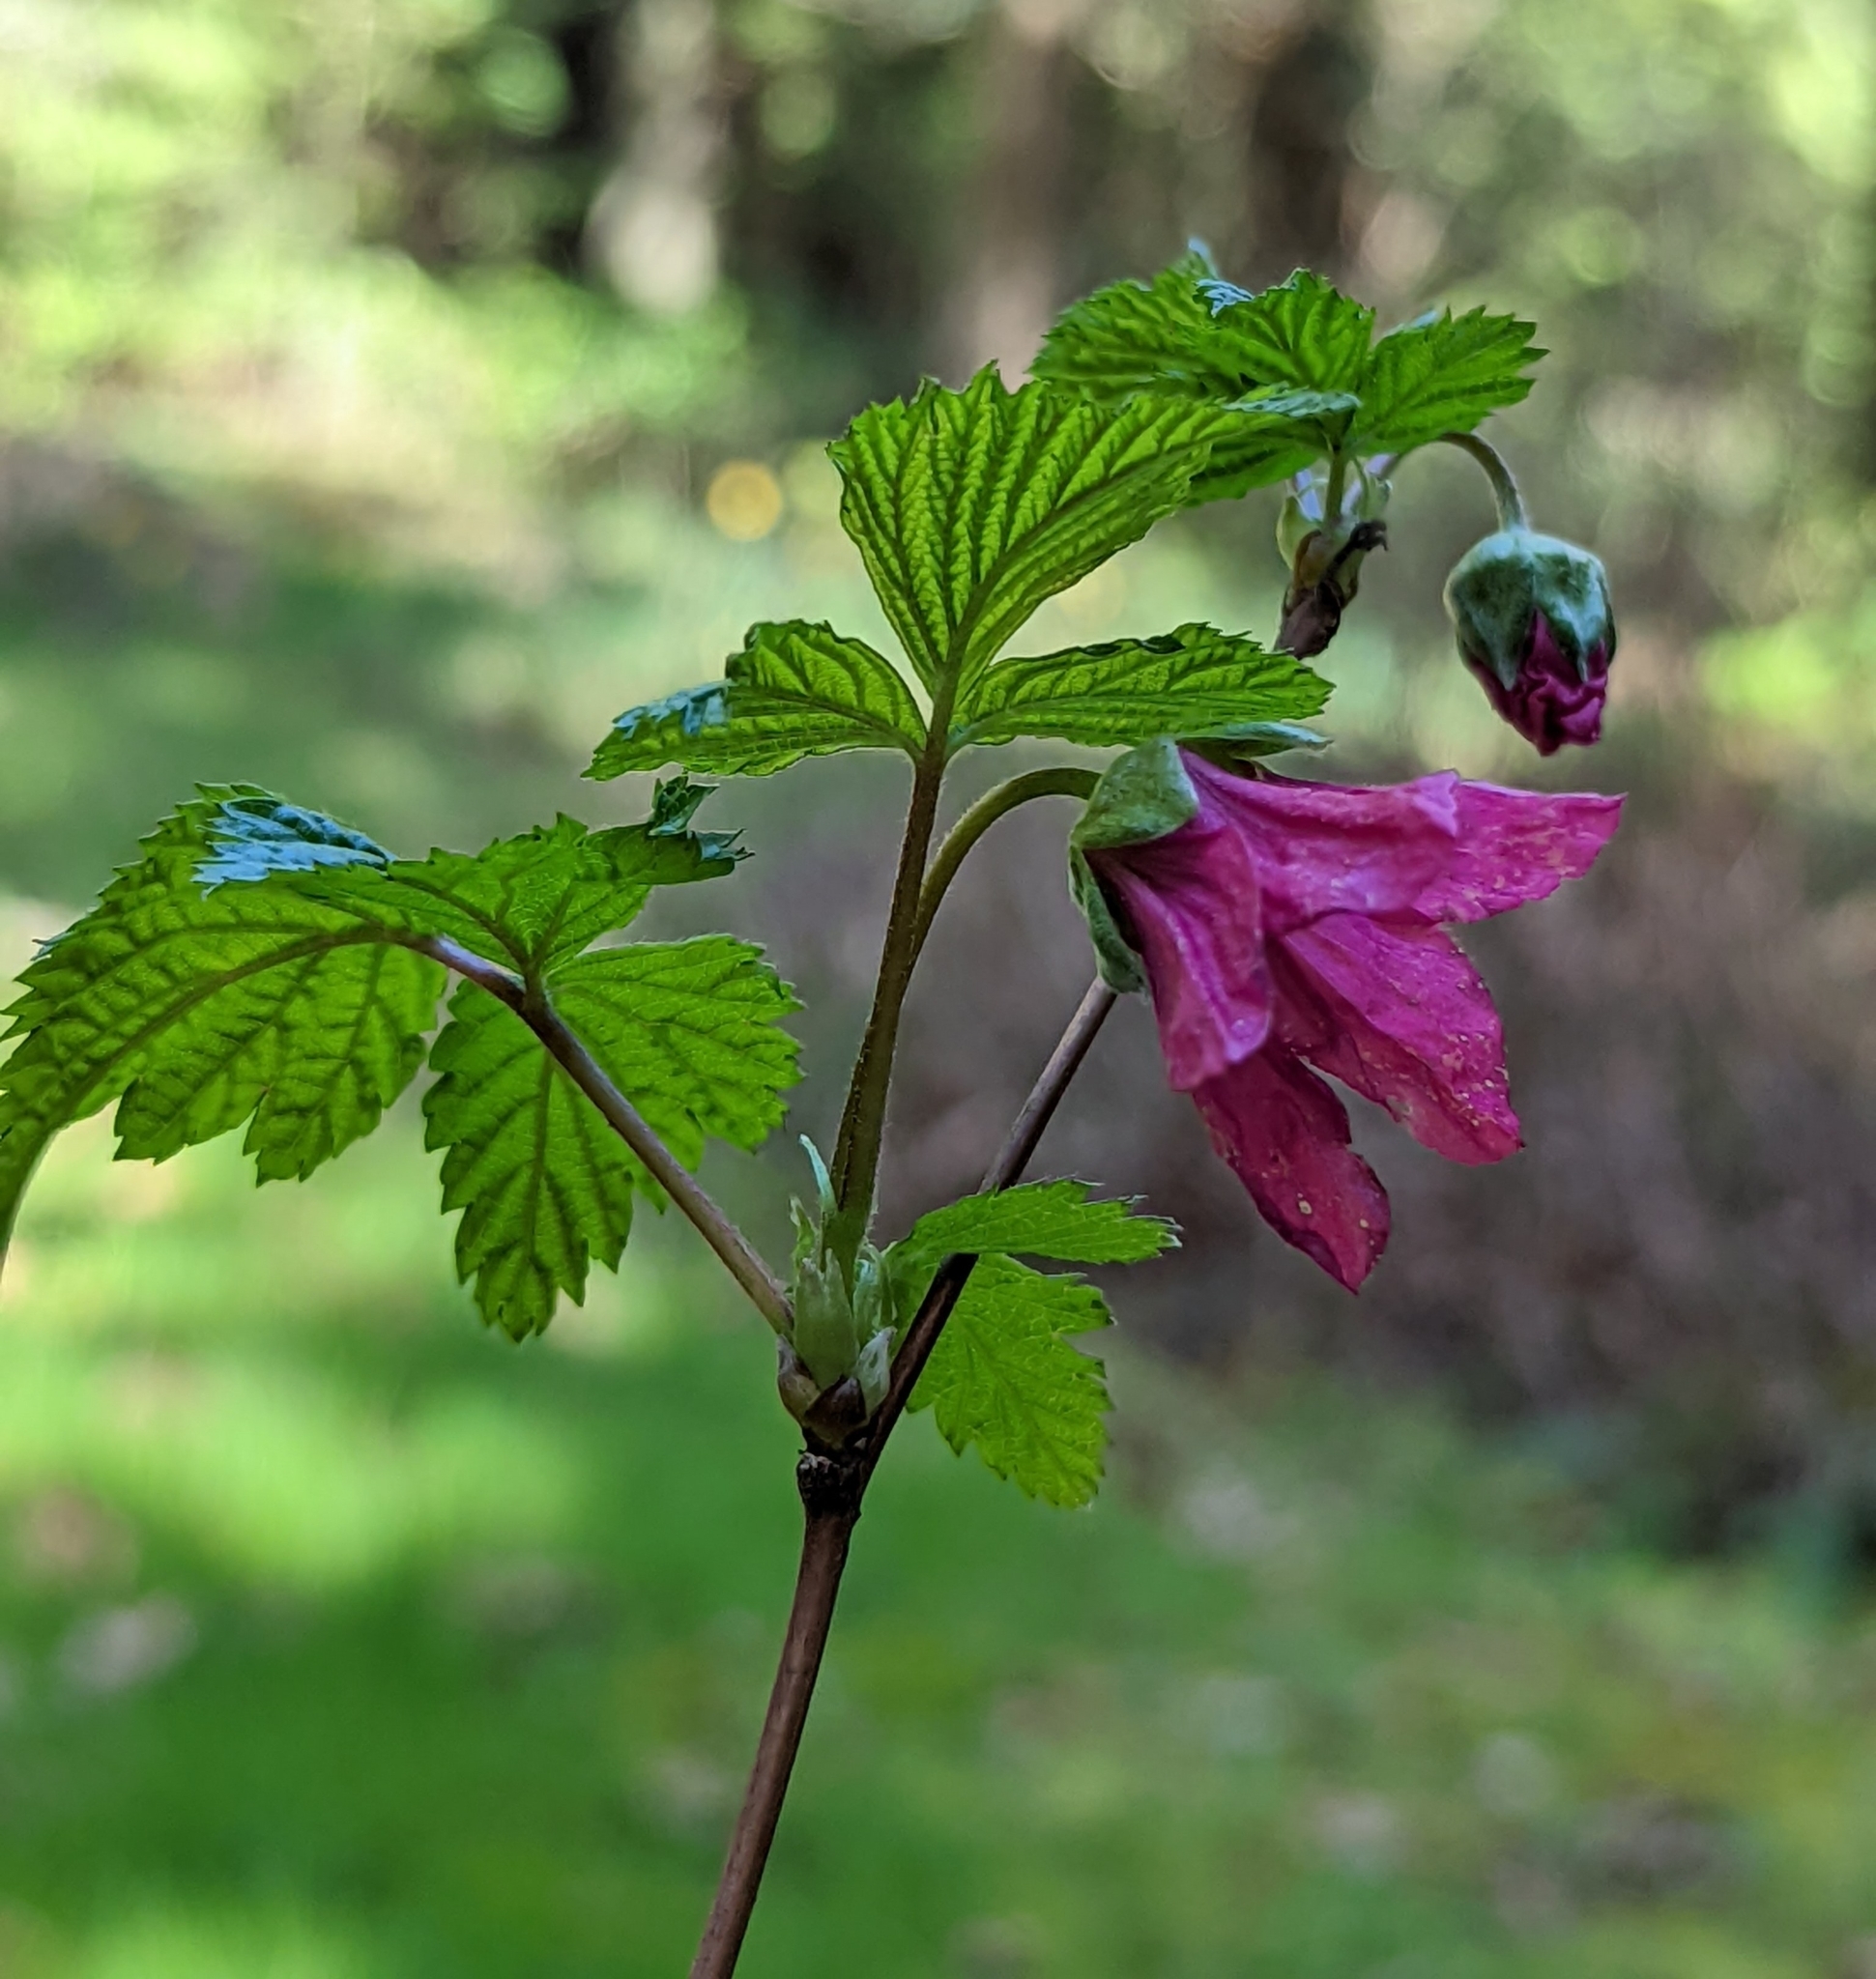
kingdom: Plantae
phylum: Tracheophyta
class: Magnoliopsida
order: Rosales
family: Rosaceae
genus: Rubus
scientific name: Rubus spectabilis
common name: Salmonberry
